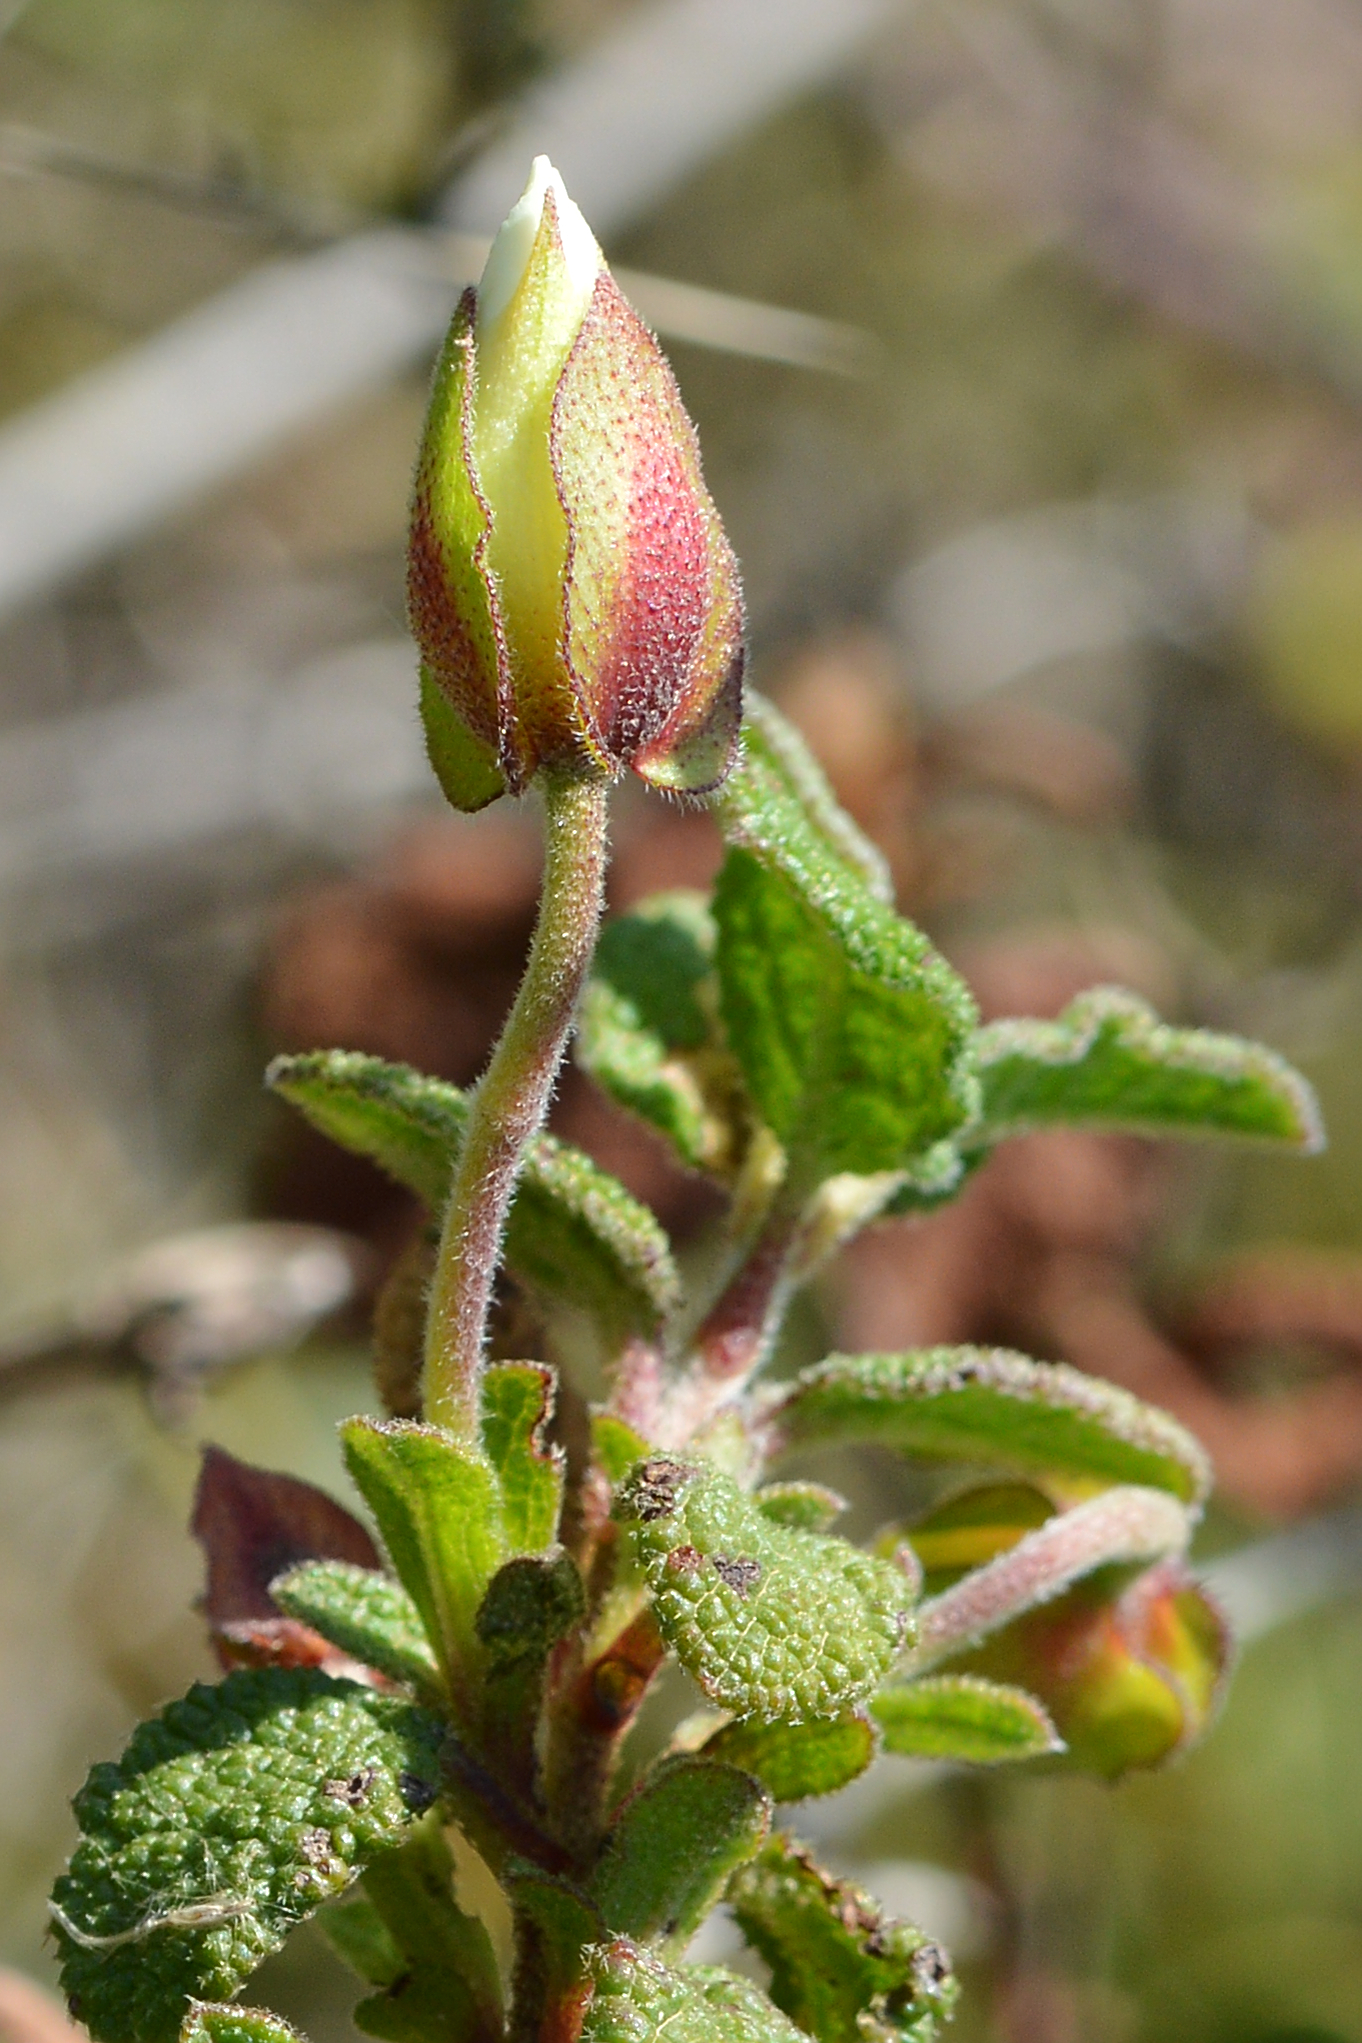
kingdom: Plantae
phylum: Tracheophyta
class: Magnoliopsida
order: Malvales
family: Cistaceae
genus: Cistus
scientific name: Cistus salviifolius
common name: Salvia cistus
